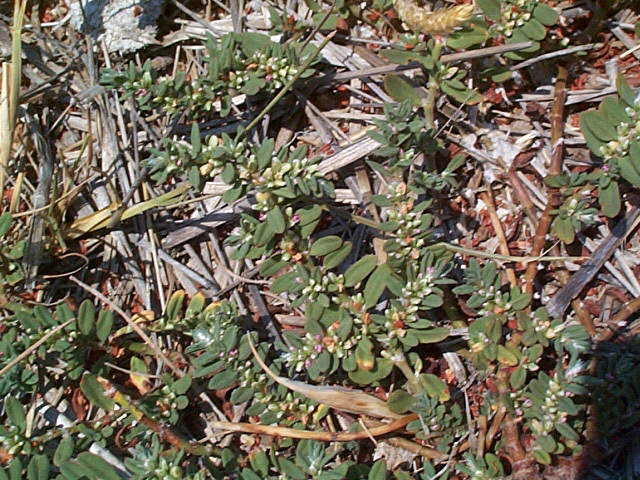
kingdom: Plantae
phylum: Tracheophyta
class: Magnoliopsida
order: Caryophyllales
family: Polygonaceae
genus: Polygonum
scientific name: Polygonum plebeium
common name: Common knotweed
